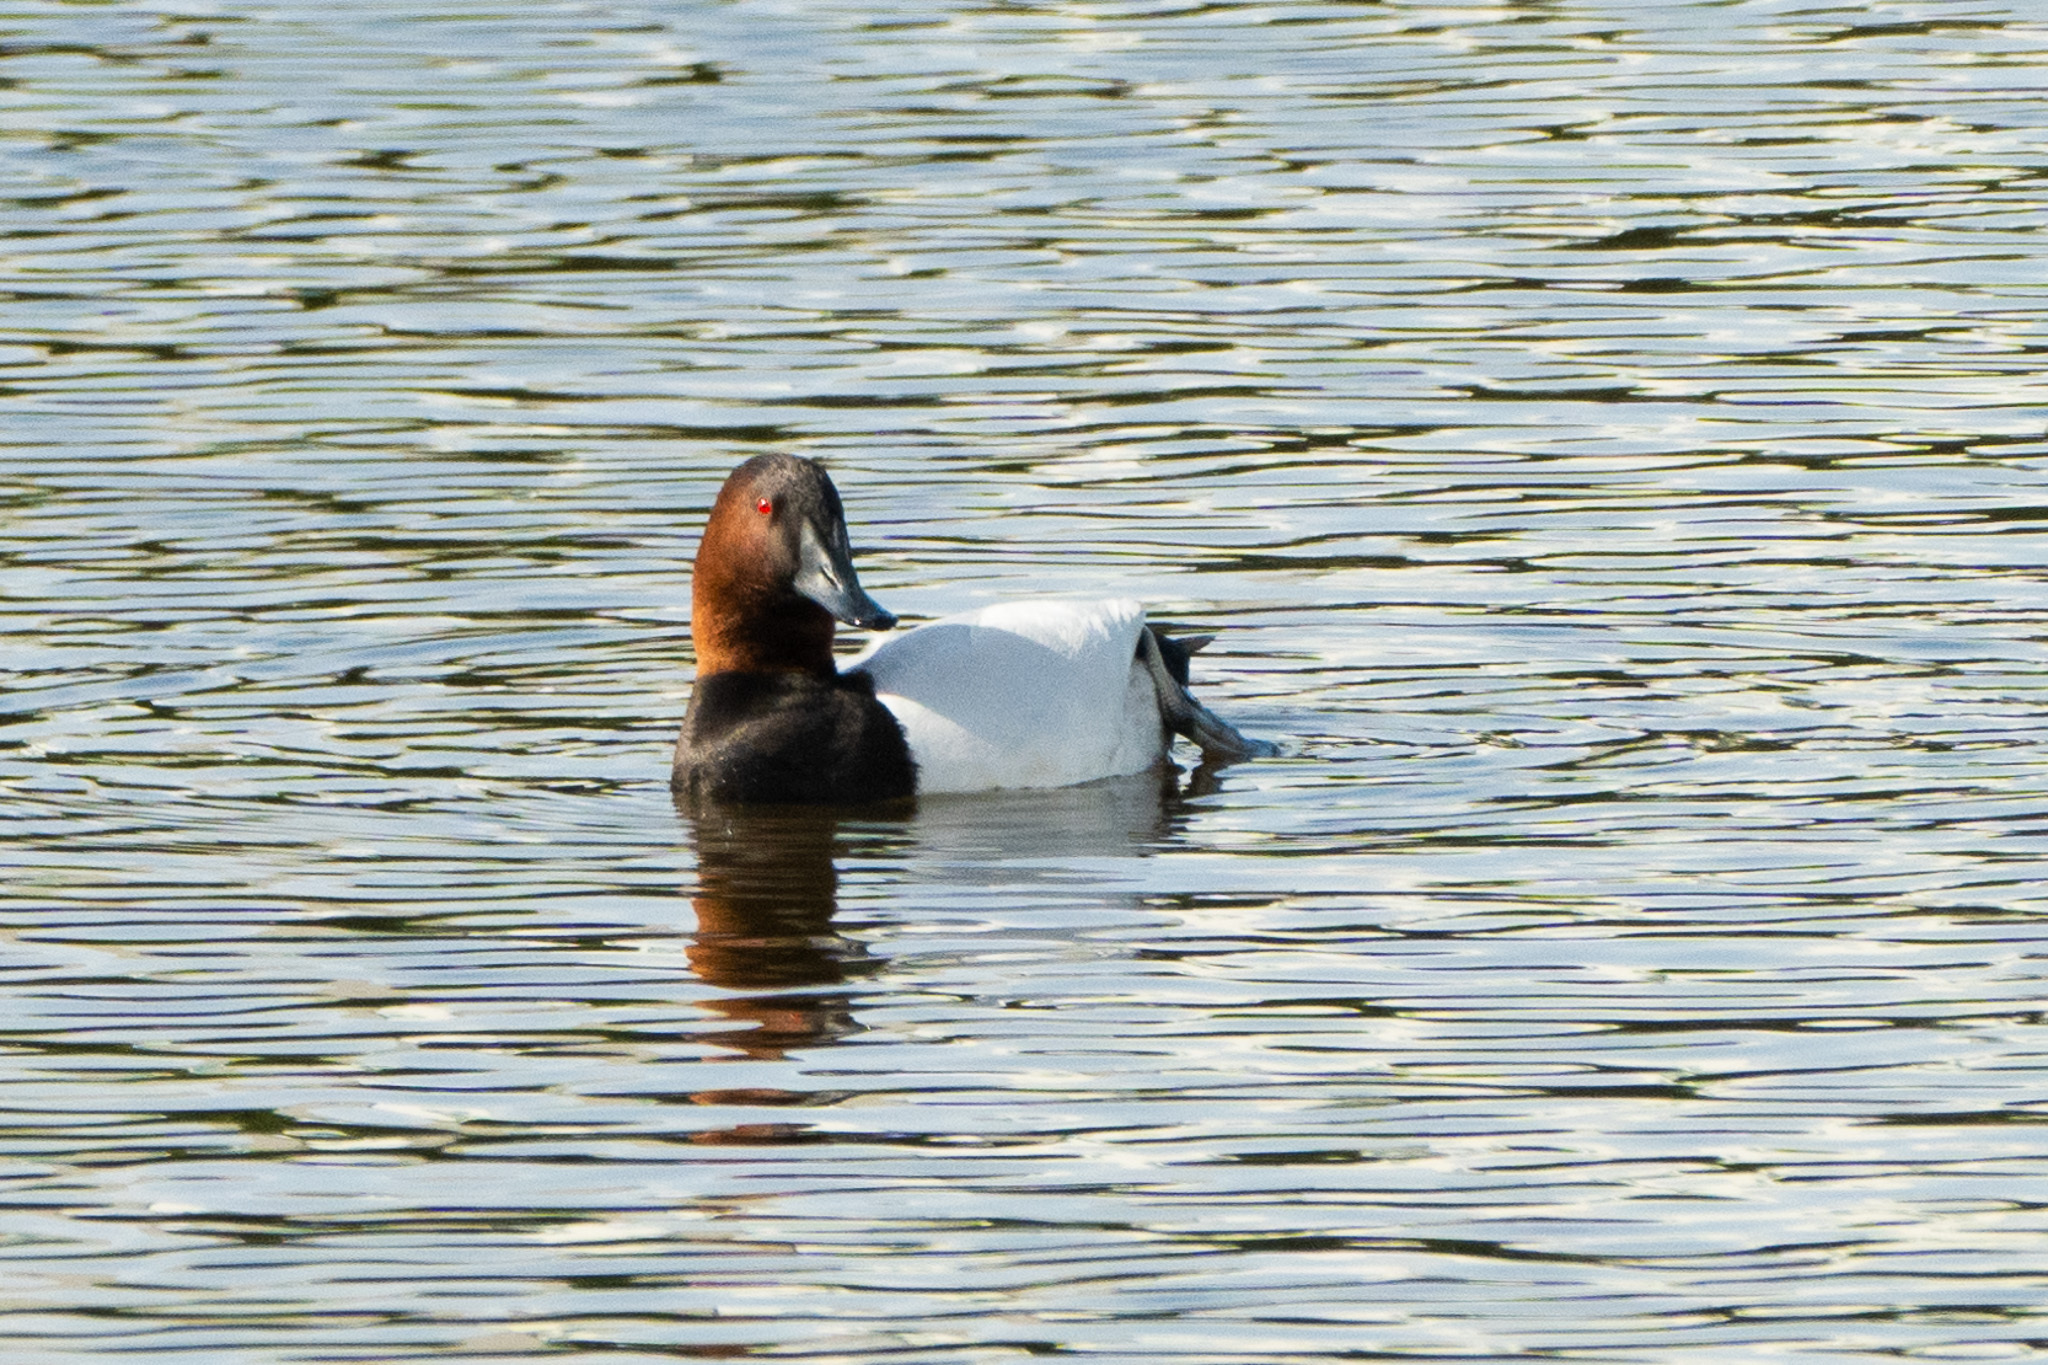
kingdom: Animalia
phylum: Chordata
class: Aves
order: Anseriformes
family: Anatidae
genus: Aythya
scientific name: Aythya valisineria
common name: Canvasback
